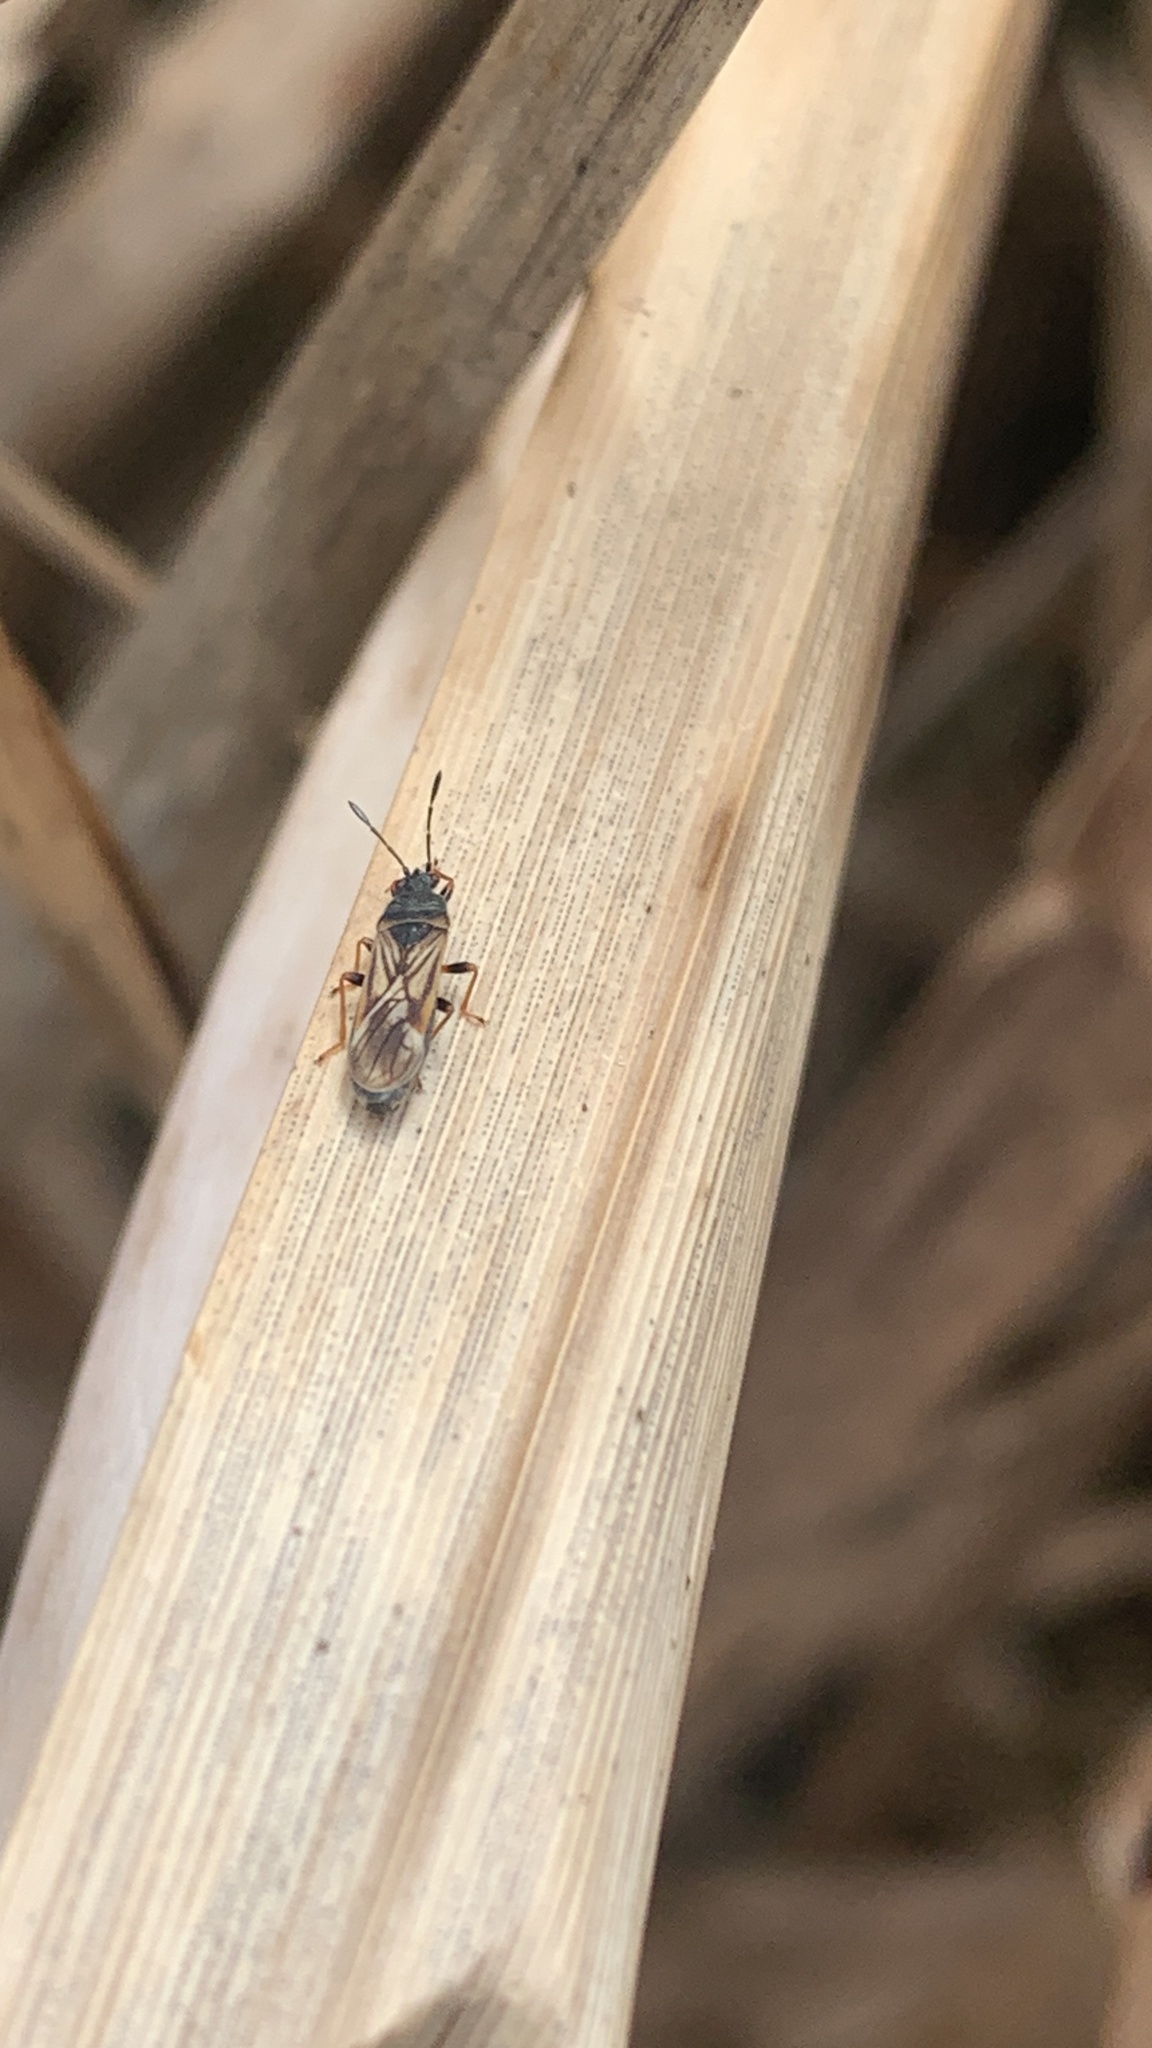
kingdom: Animalia
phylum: Arthropoda
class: Insecta
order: Hemiptera
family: Blissidae
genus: Ischnodemus
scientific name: Ischnodemus sabuleti
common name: European cinchbug
